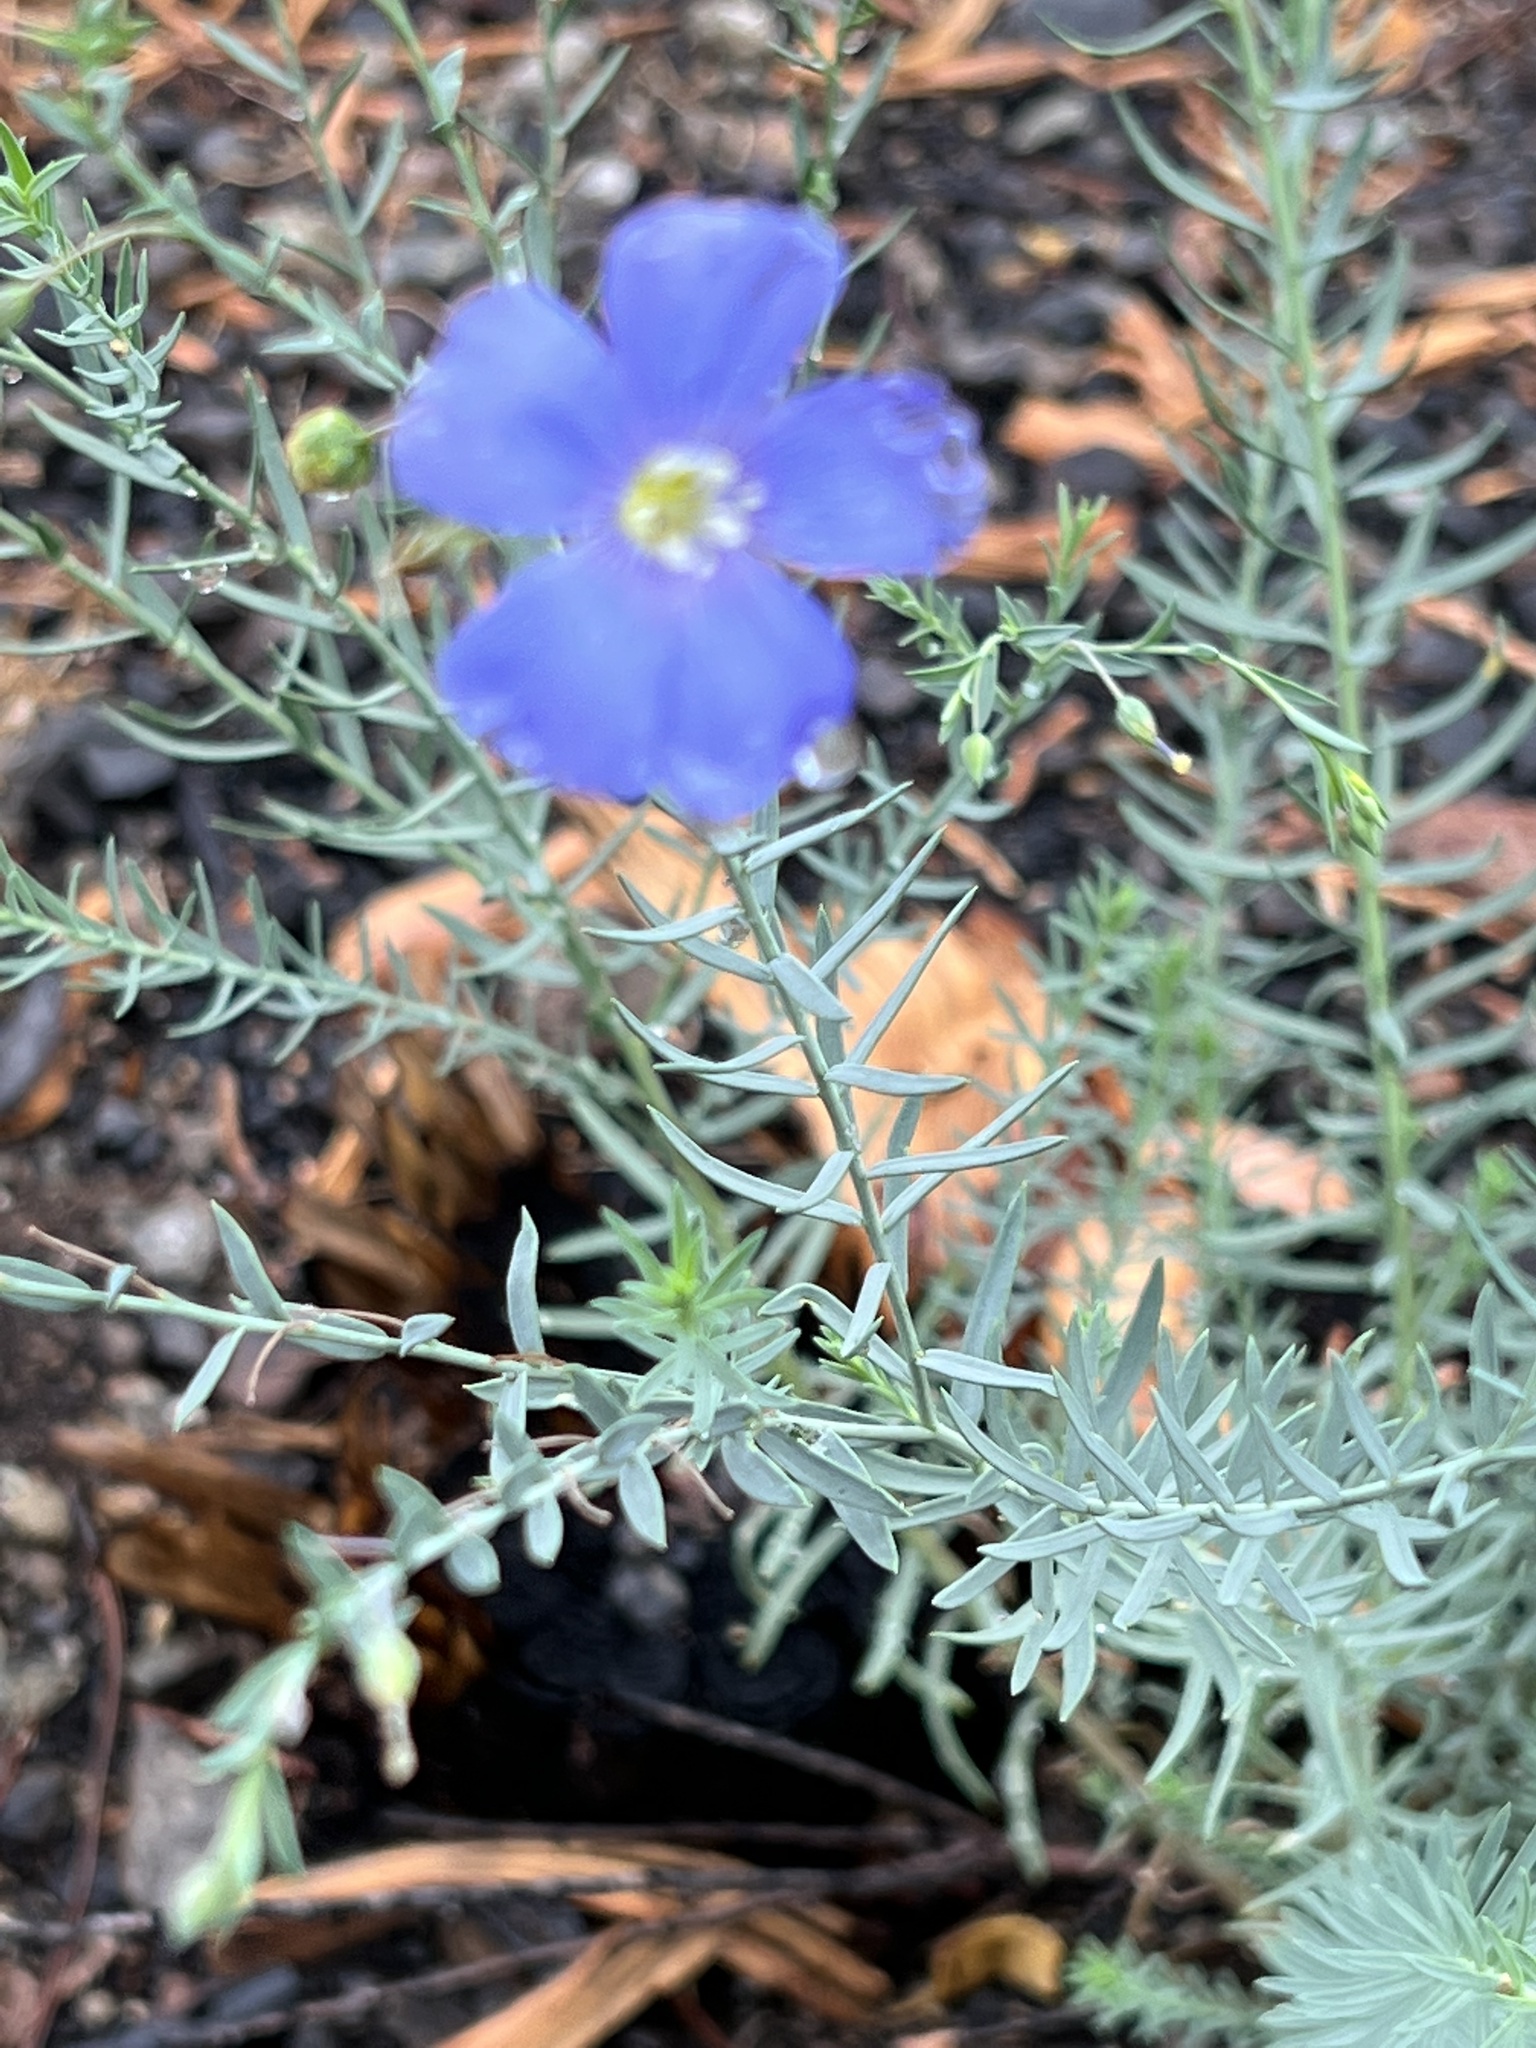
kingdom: Plantae
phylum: Tracheophyta
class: Magnoliopsida
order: Malpighiales
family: Linaceae
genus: Linum
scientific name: Linum lewisii
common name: Prairie flax
